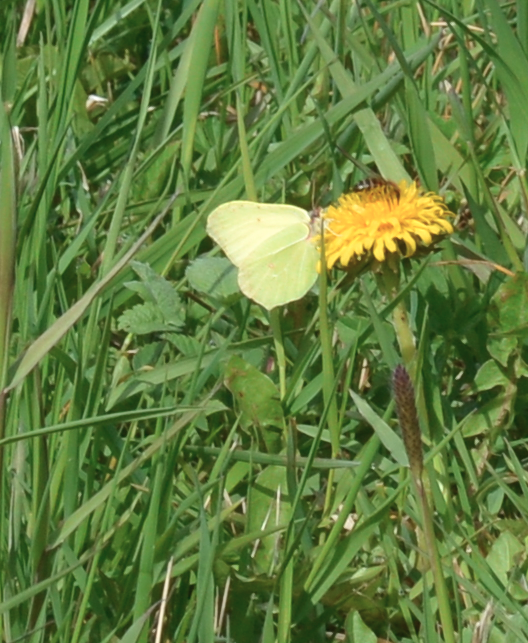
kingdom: Animalia
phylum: Arthropoda
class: Insecta
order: Lepidoptera
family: Pieridae
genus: Gonepteryx
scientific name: Gonepteryx rhamni
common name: Brimstone
